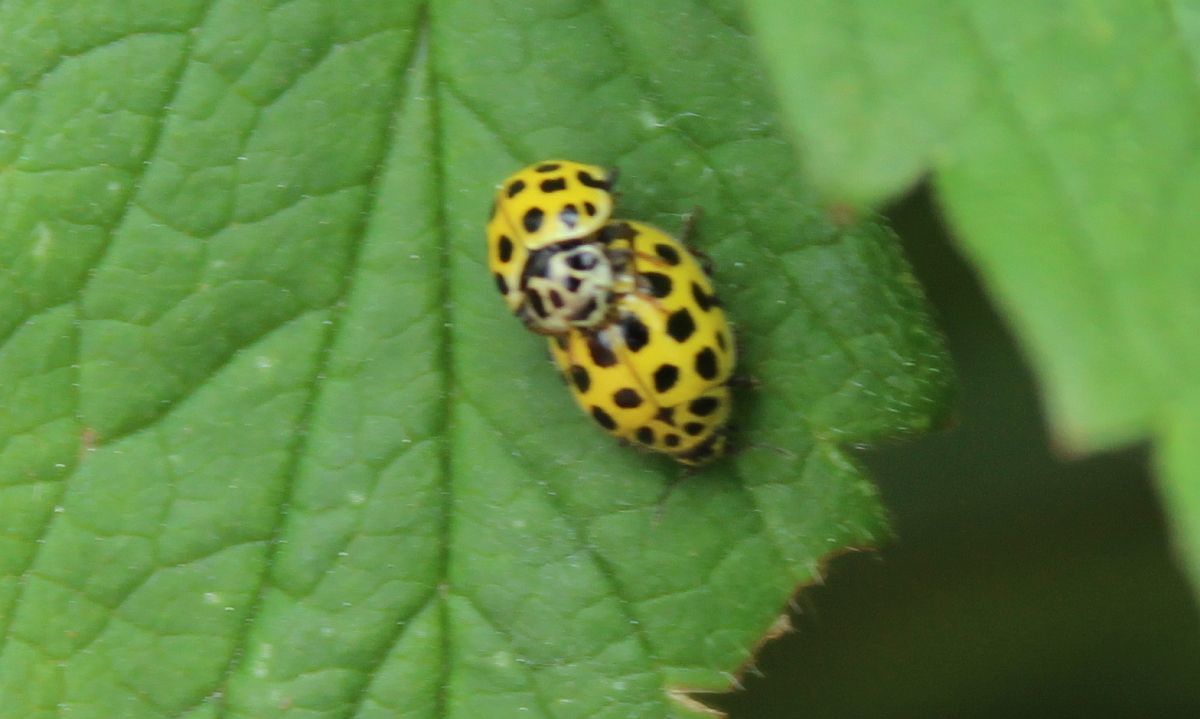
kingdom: Animalia
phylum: Arthropoda
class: Insecta
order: Coleoptera
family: Coccinellidae
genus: Psyllobora
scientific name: Psyllobora vigintiduopunctata
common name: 22-spot ladybird
